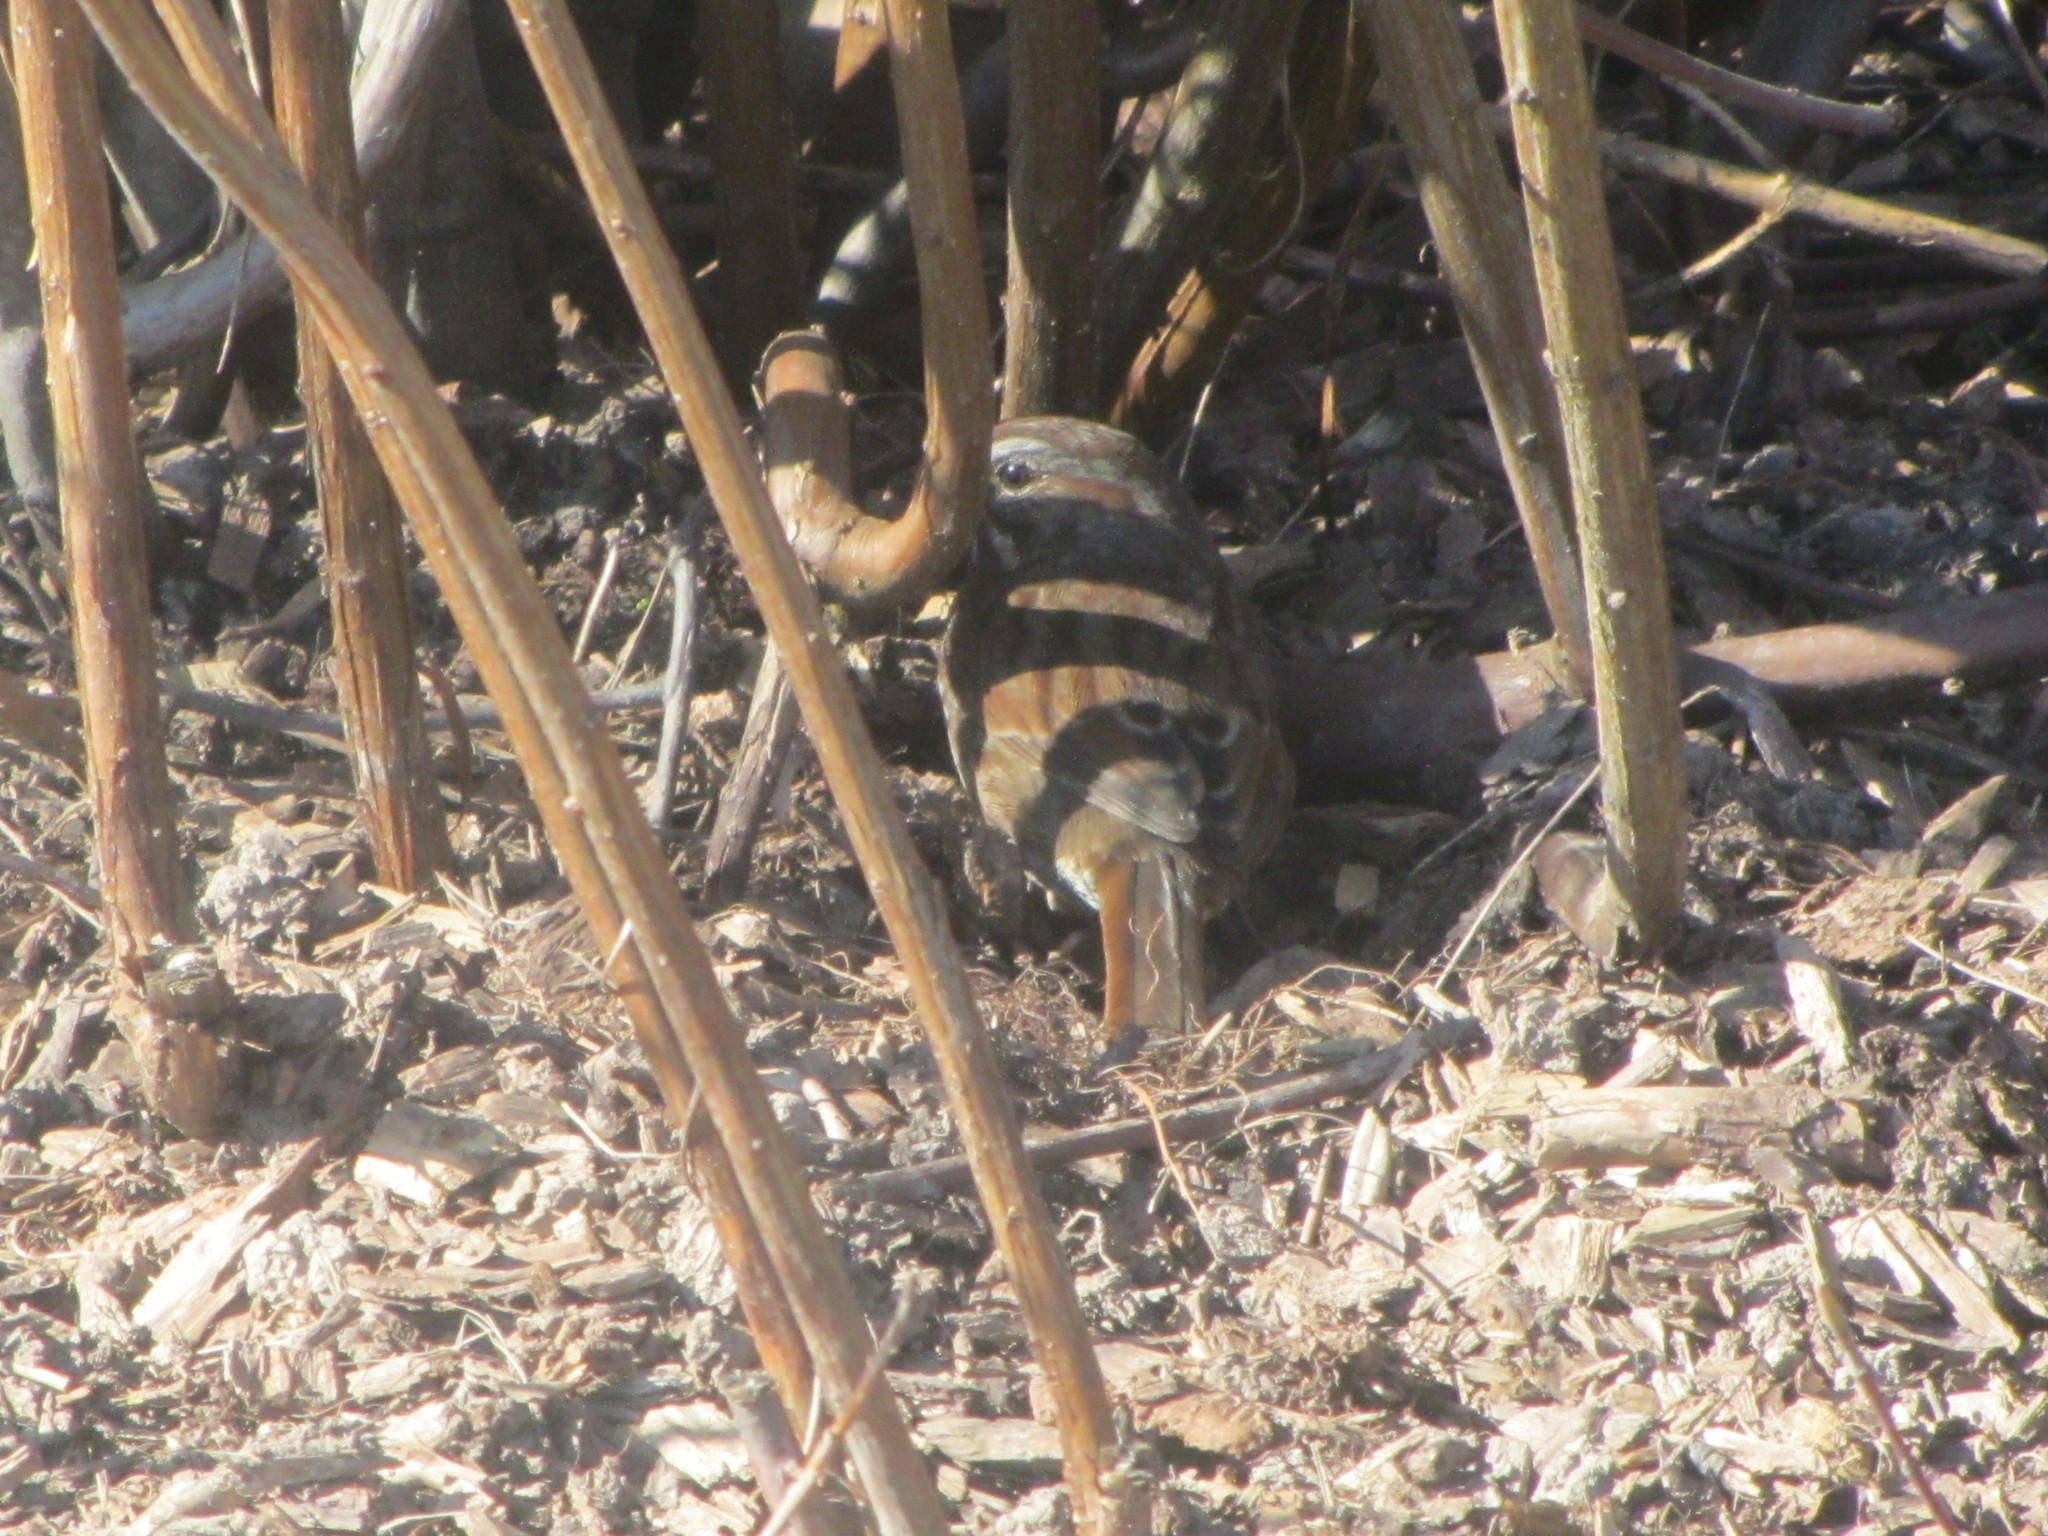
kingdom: Animalia
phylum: Chordata
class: Aves
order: Passeriformes
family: Passerellidae
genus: Melospiza
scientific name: Melospiza melodia
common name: Song sparrow
